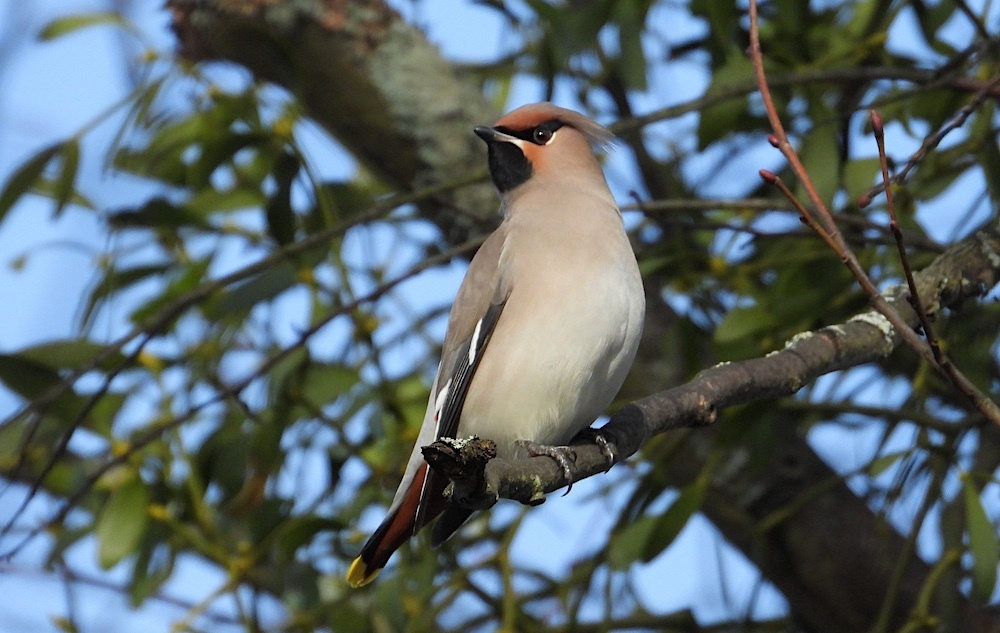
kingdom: Animalia
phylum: Chordata
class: Aves
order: Passeriformes
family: Bombycillidae
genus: Bombycilla
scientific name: Bombycilla garrulus
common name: Bohemian waxwing
